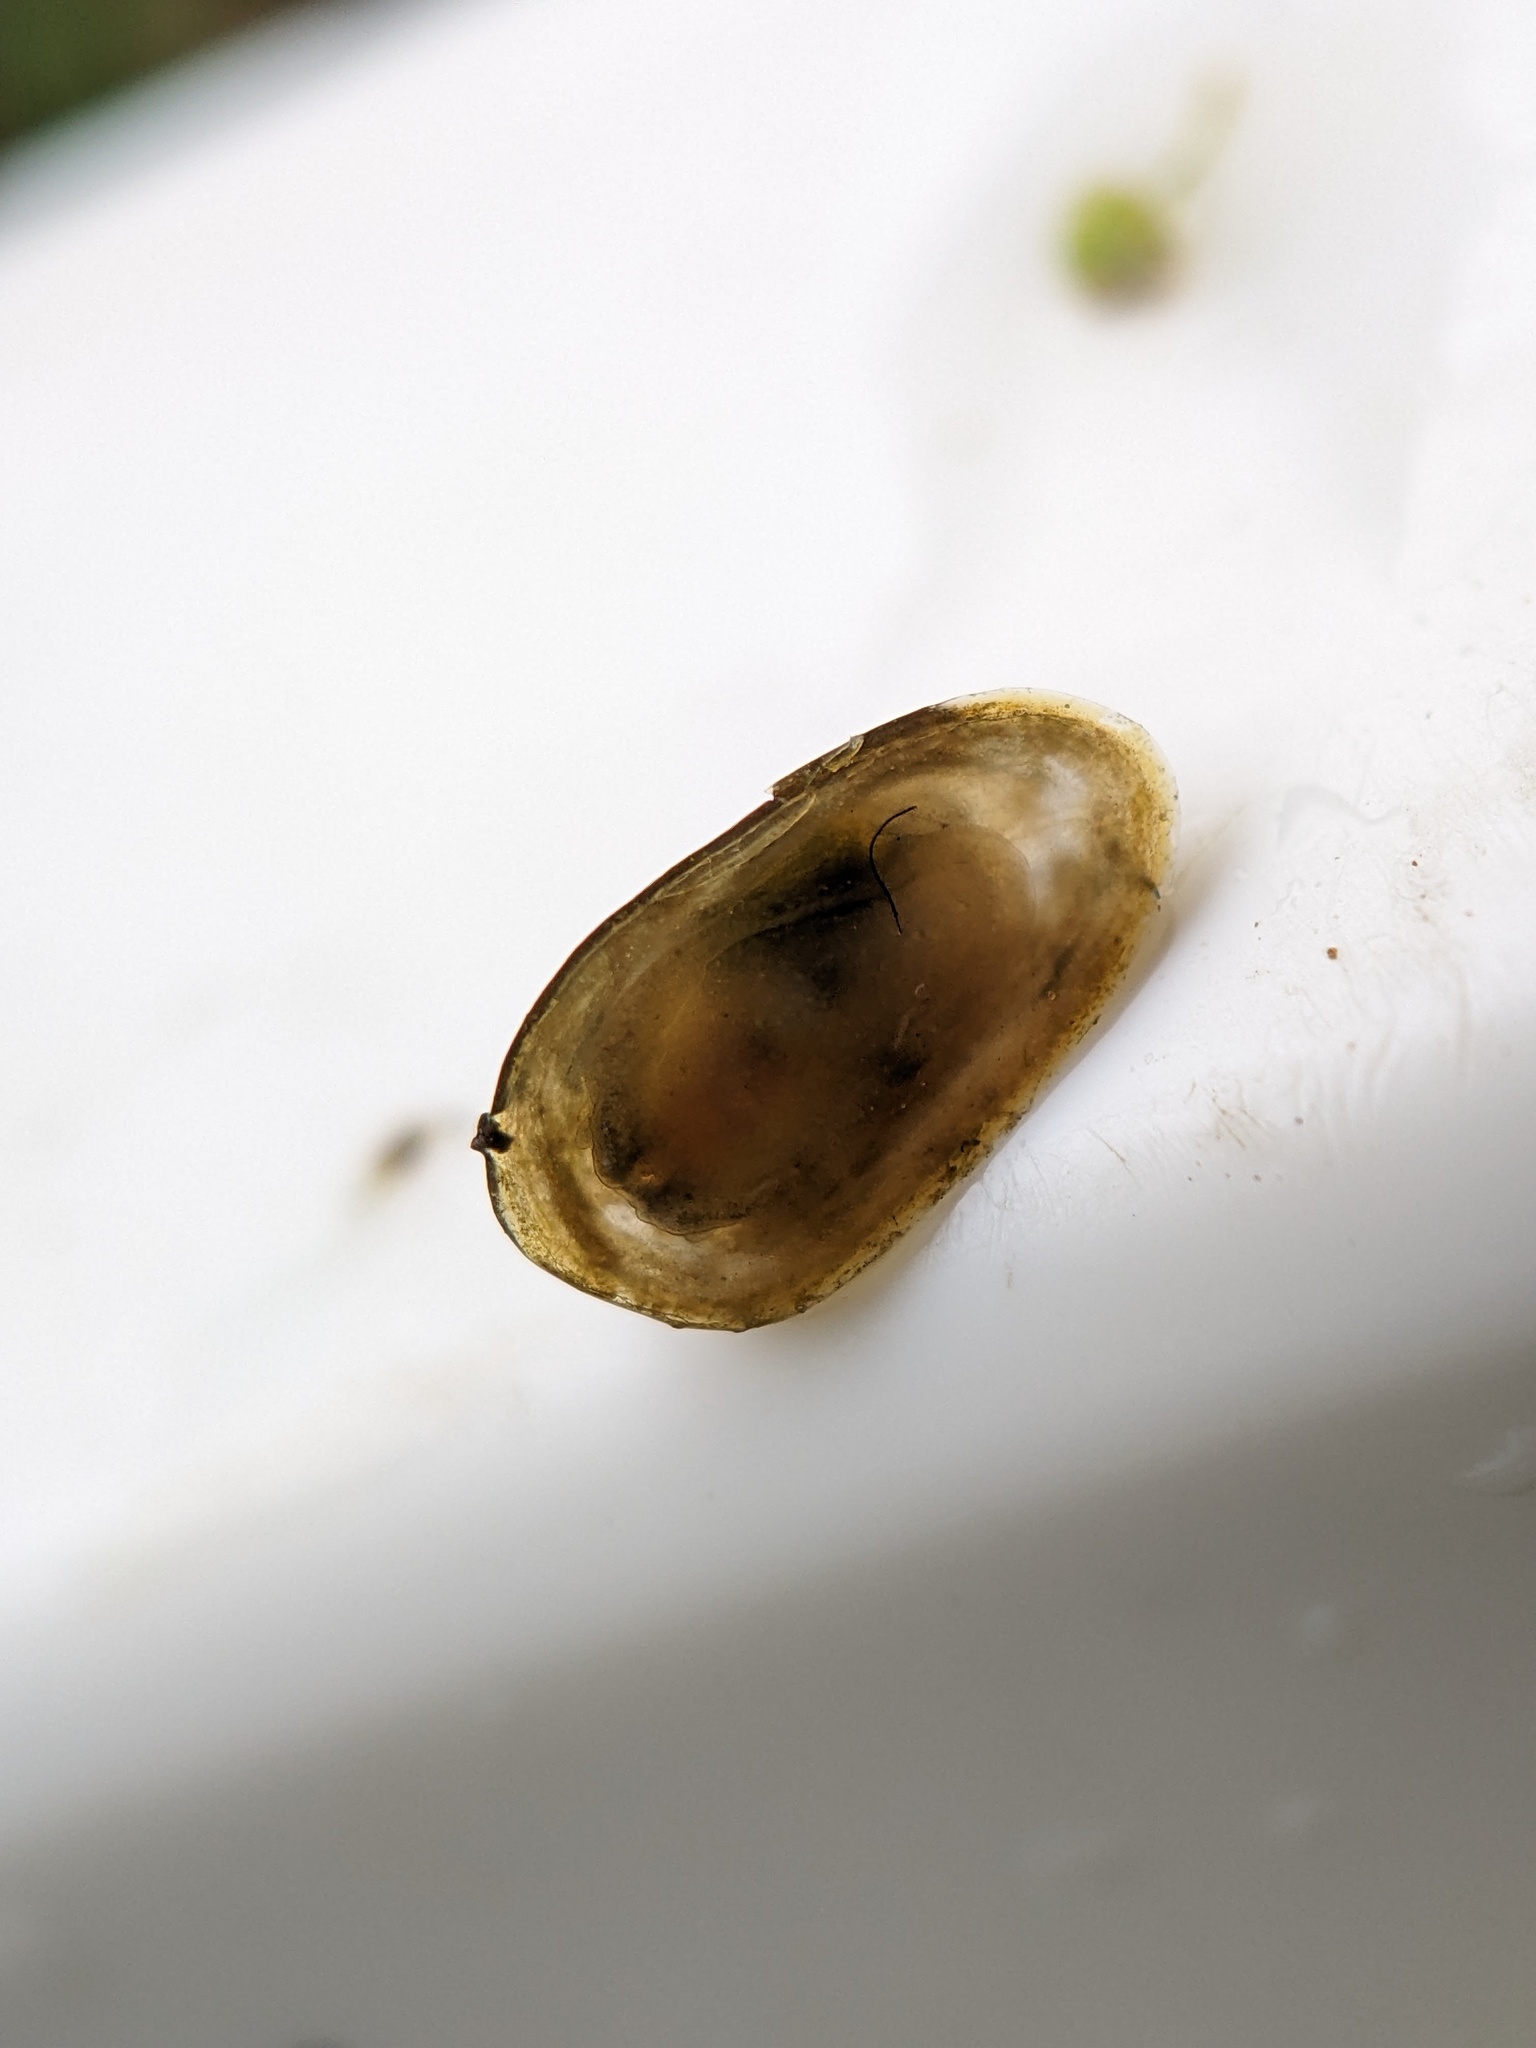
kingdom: Animalia
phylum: Mollusca
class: Gastropoda
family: Planorbidae
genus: Ancylus
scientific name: Ancylus fluviatilis
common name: River limpet
